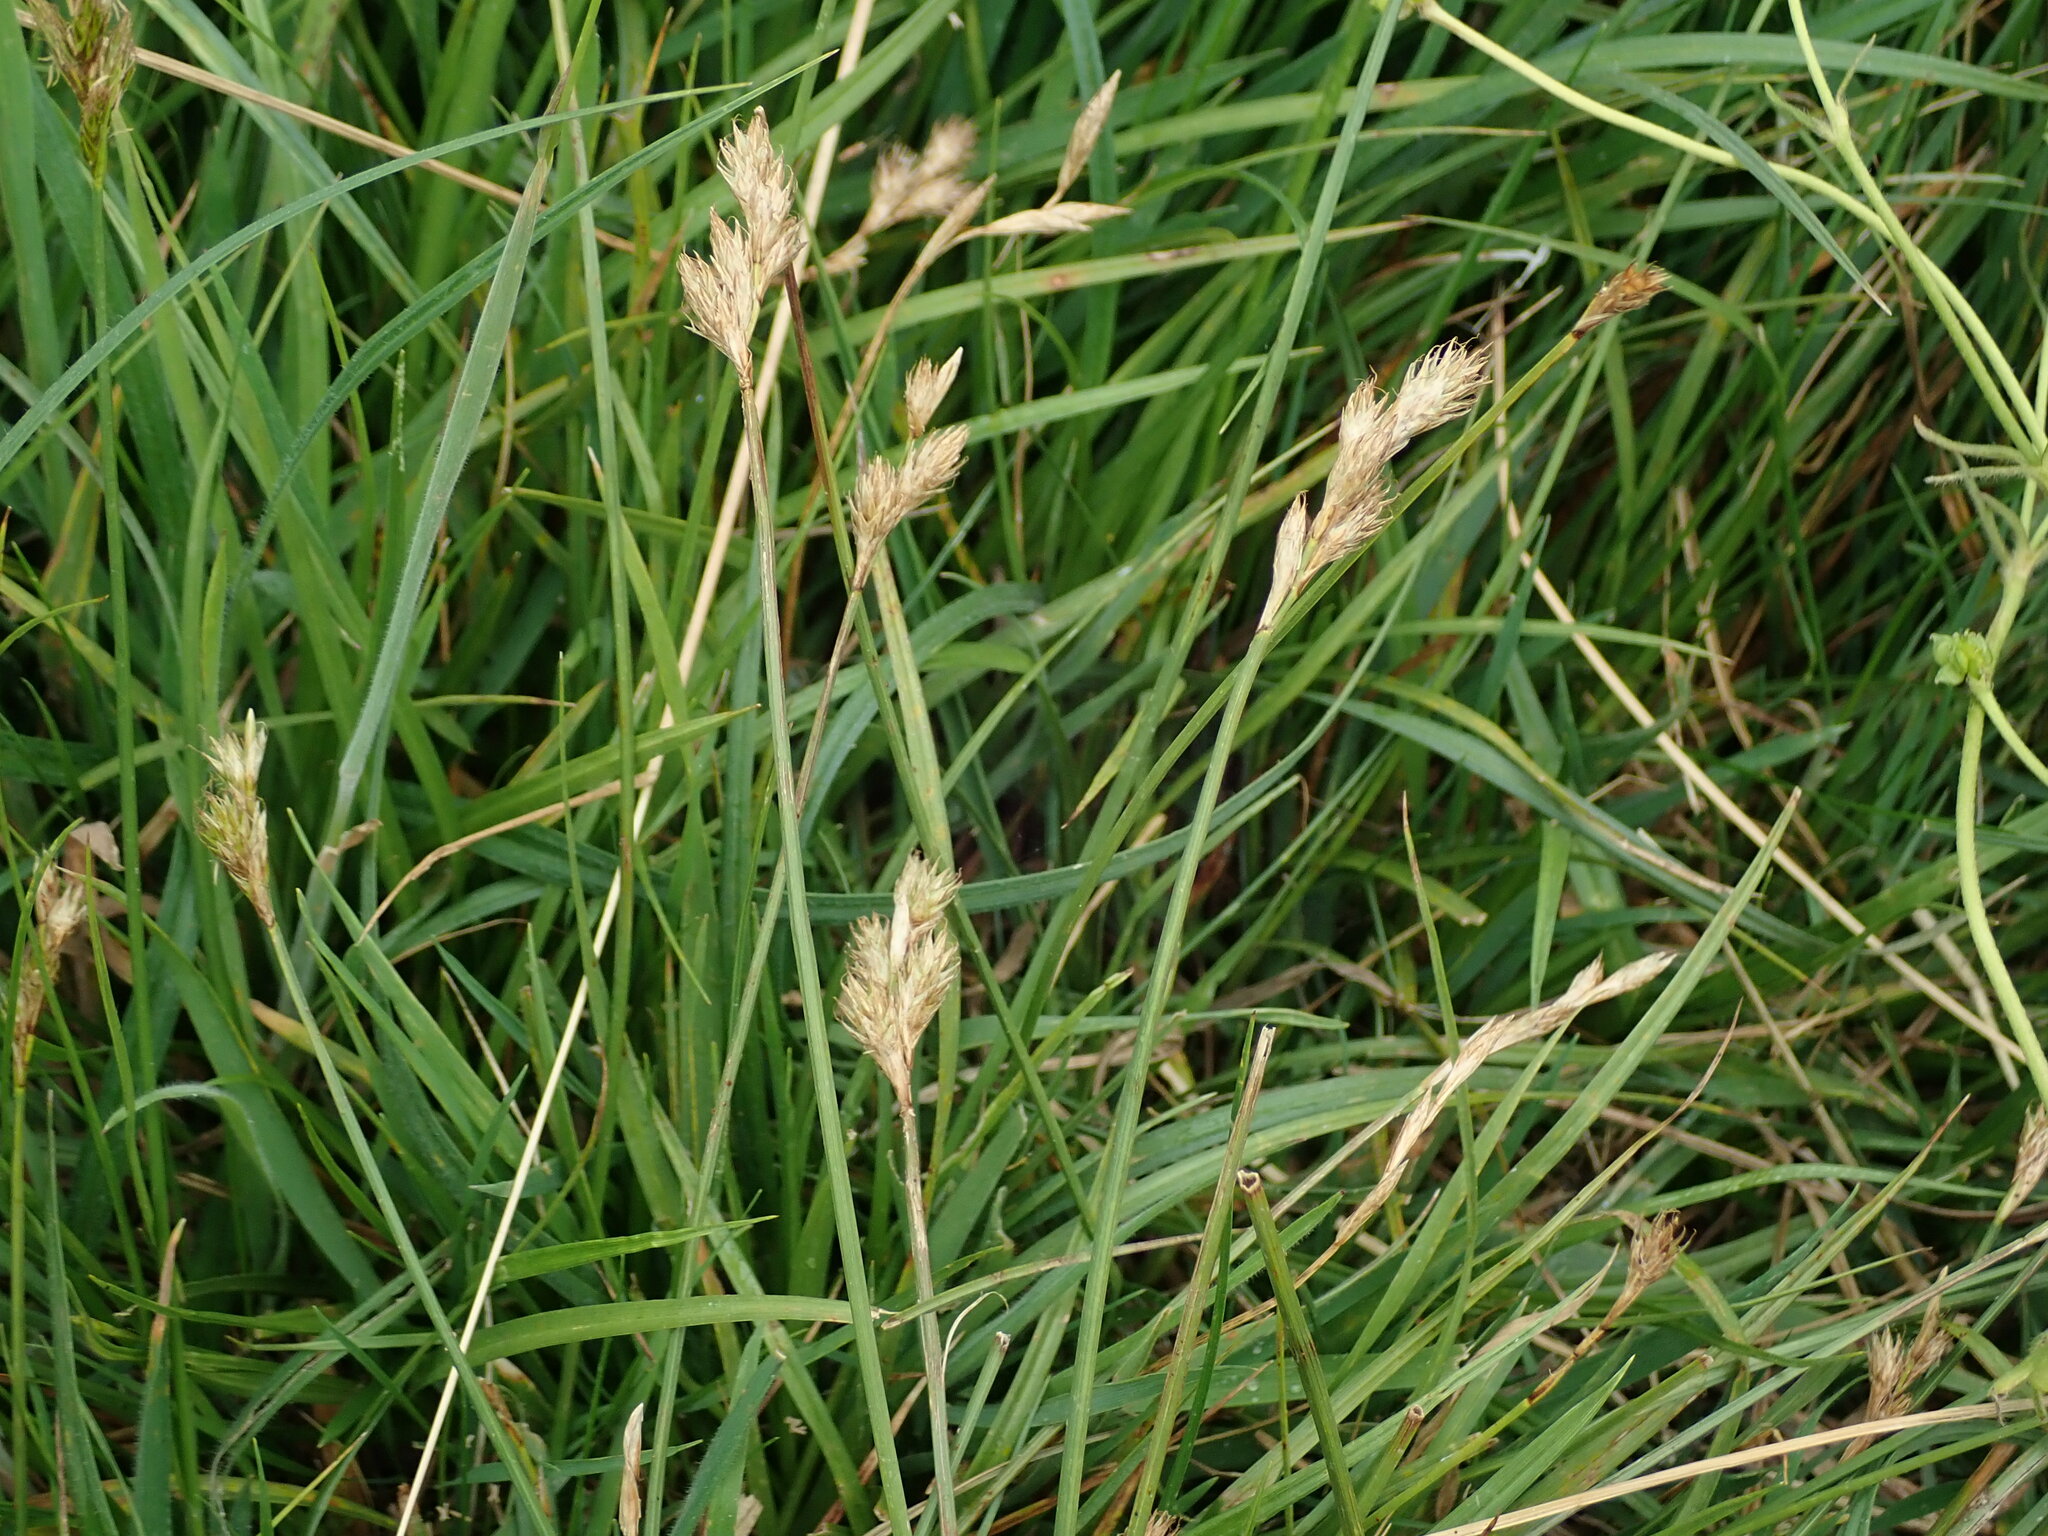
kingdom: Plantae
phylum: Tracheophyta
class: Liliopsida
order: Poales
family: Cyperaceae
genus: Carex
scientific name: Carex leporina
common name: Oval sedge
